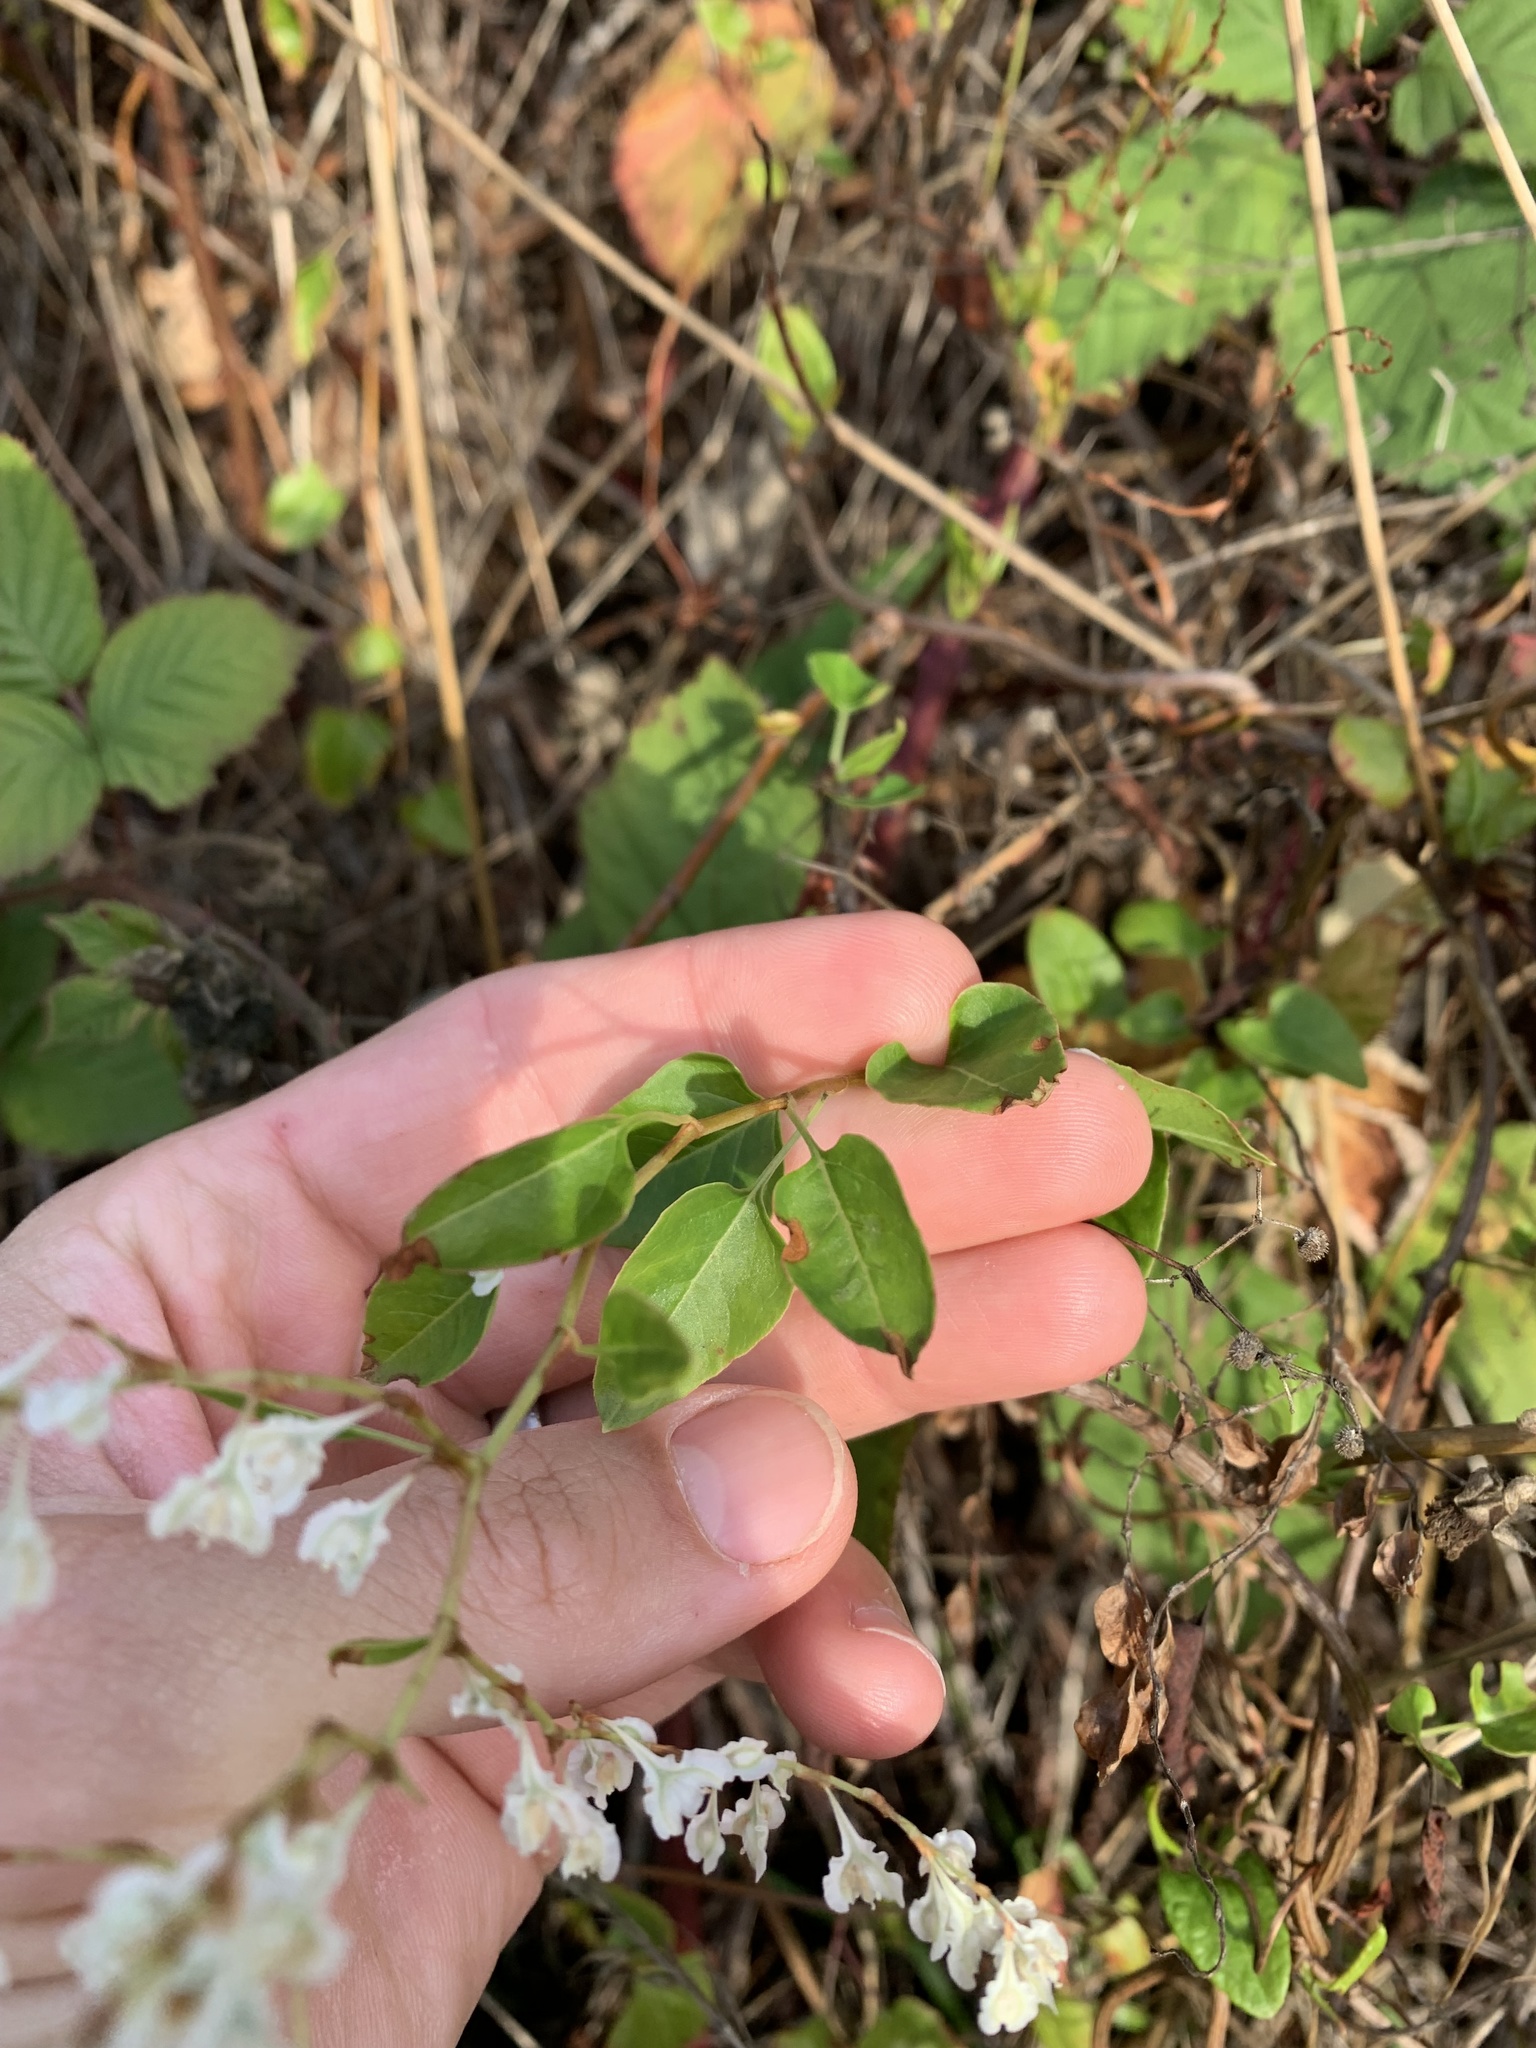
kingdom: Plantae
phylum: Tracheophyta
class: Magnoliopsida
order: Caryophyllales
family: Polygonaceae
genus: Fallopia
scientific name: Fallopia baldschuanica
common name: Russian-vine
